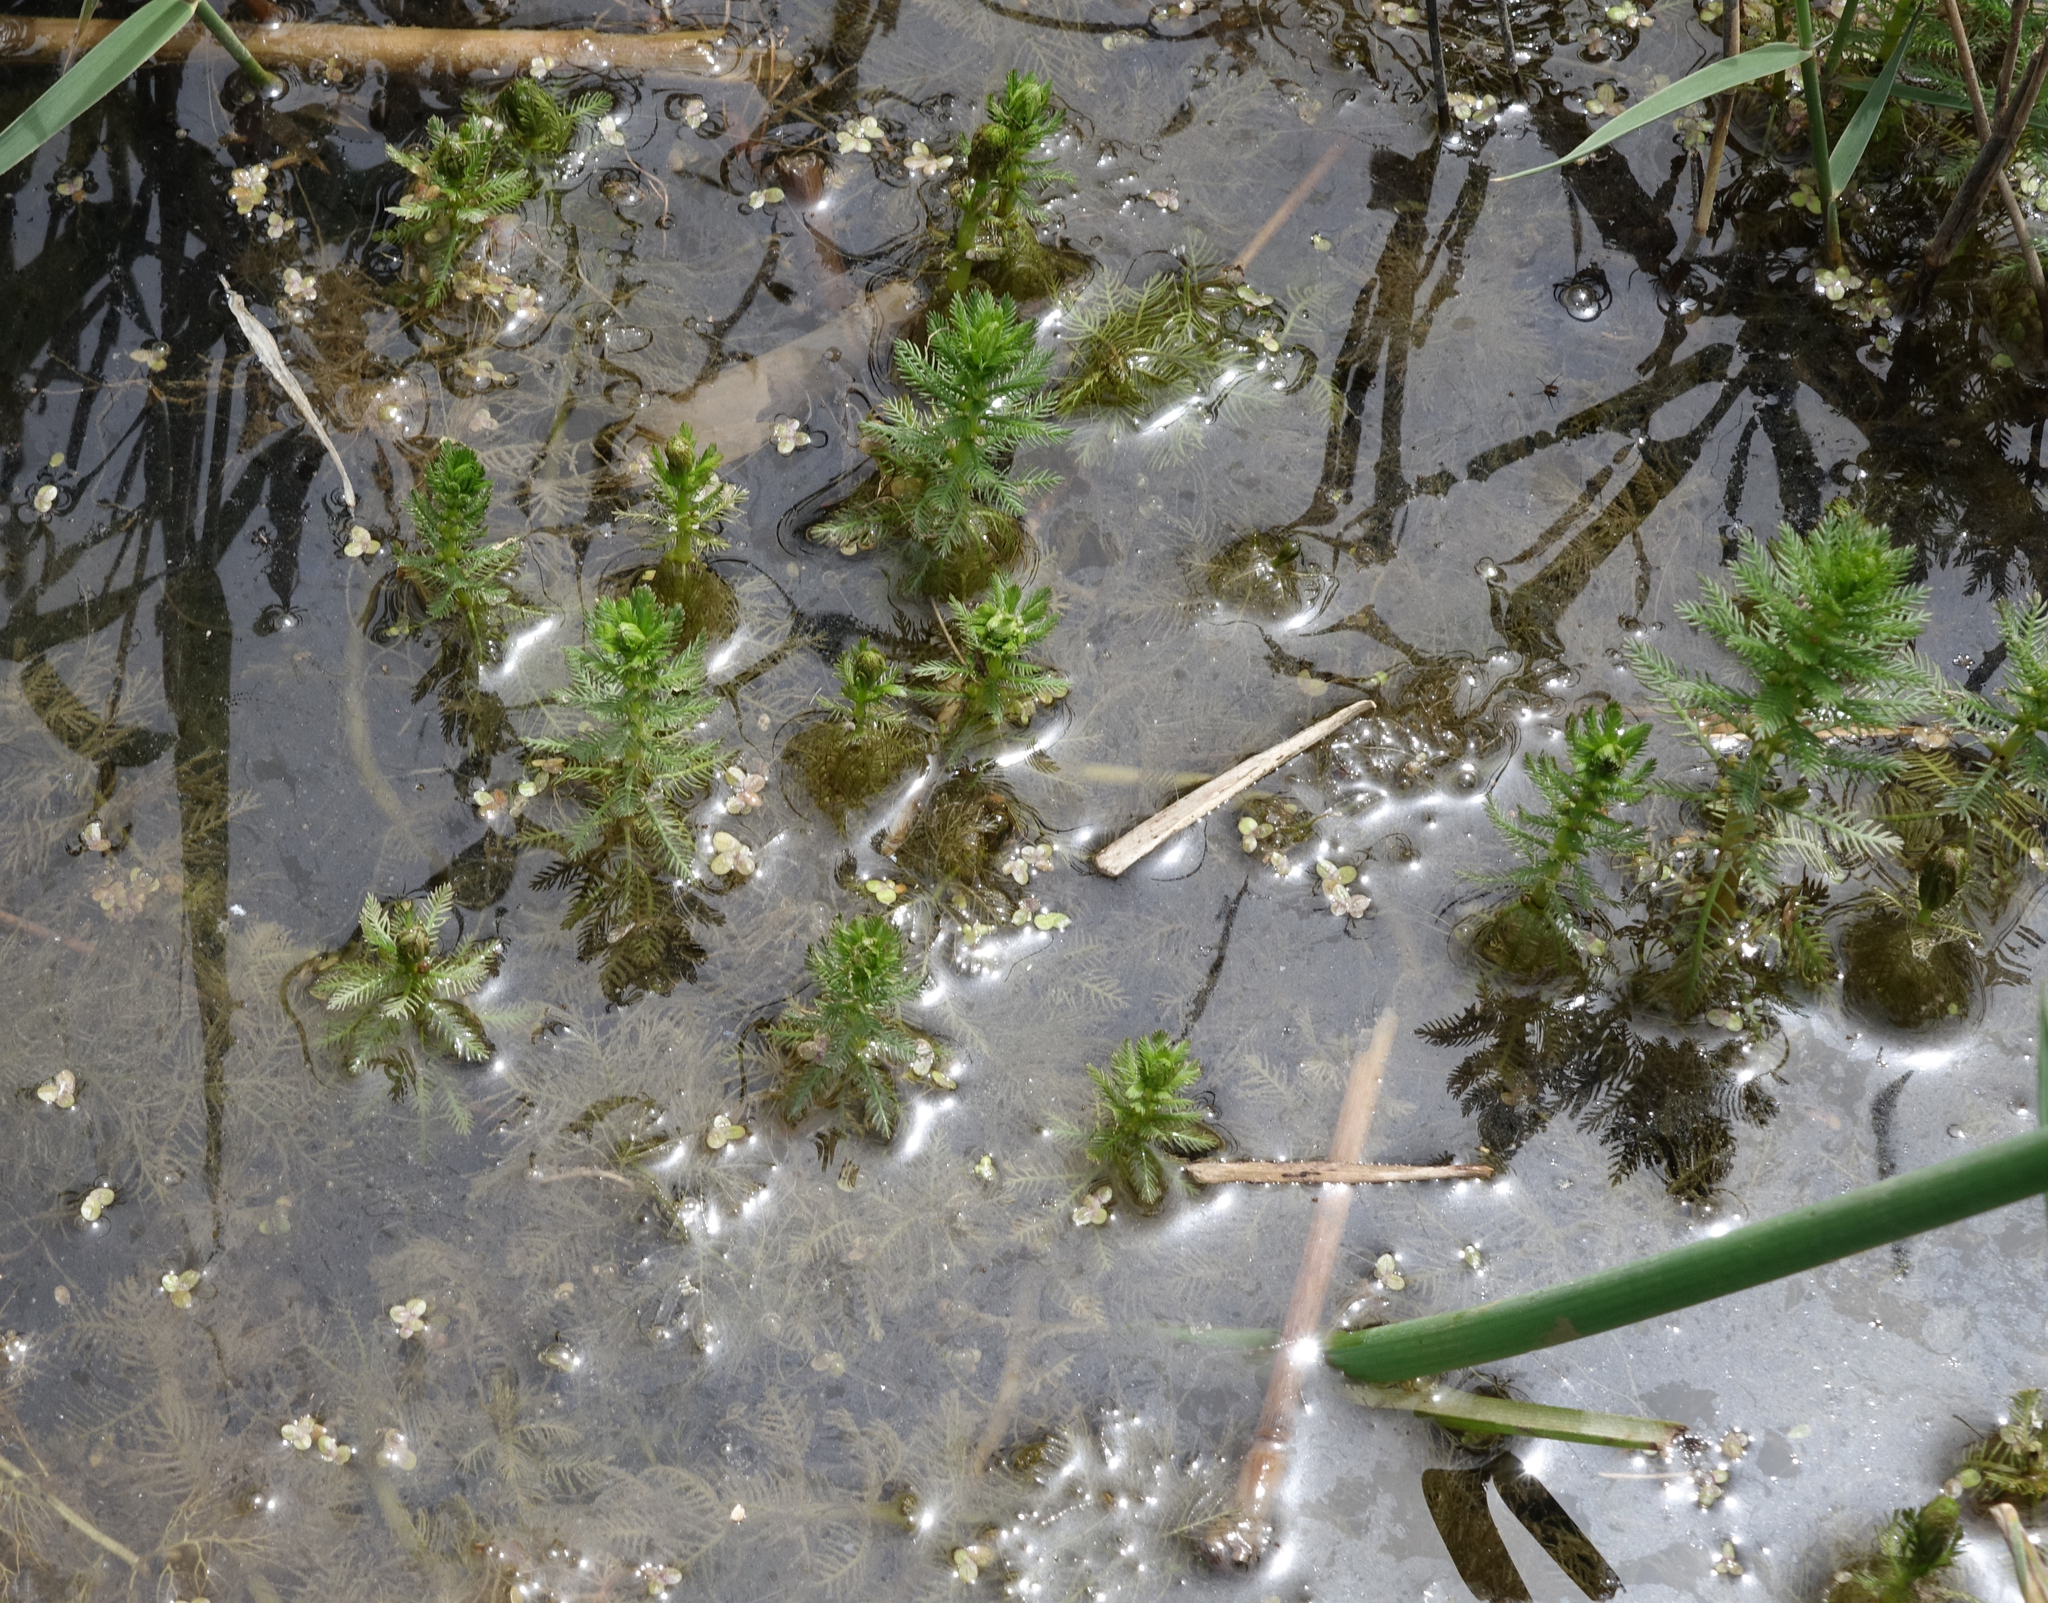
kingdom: Plantae
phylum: Tracheophyta
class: Magnoliopsida
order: Saxifragales
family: Haloragaceae
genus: Myriophyllum
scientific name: Myriophyllum verticillatum
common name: Whorled water-milfoil
